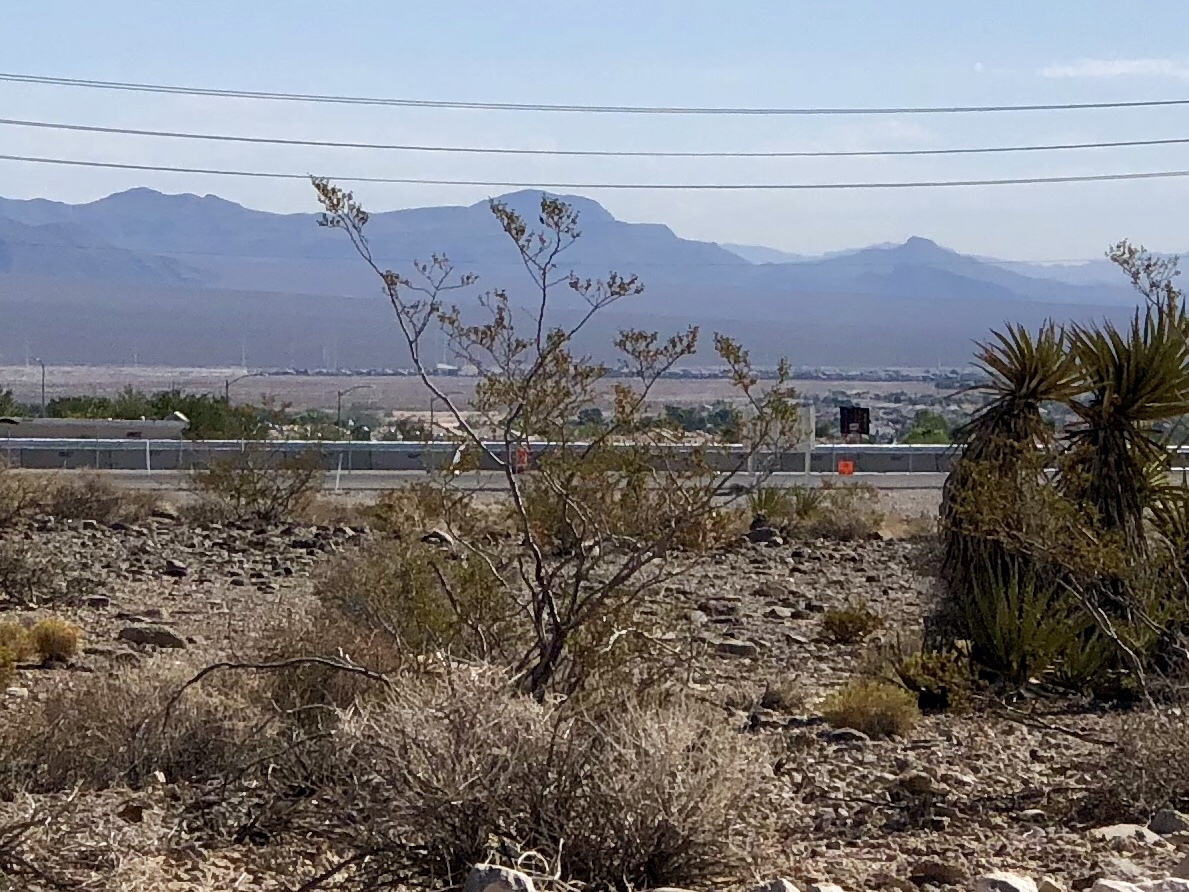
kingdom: Plantae
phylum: Tracheophyta
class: Magnoliopsida
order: Zygophyllales
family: Zygophyllaceae
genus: Larrea
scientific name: Larrea tridentata
